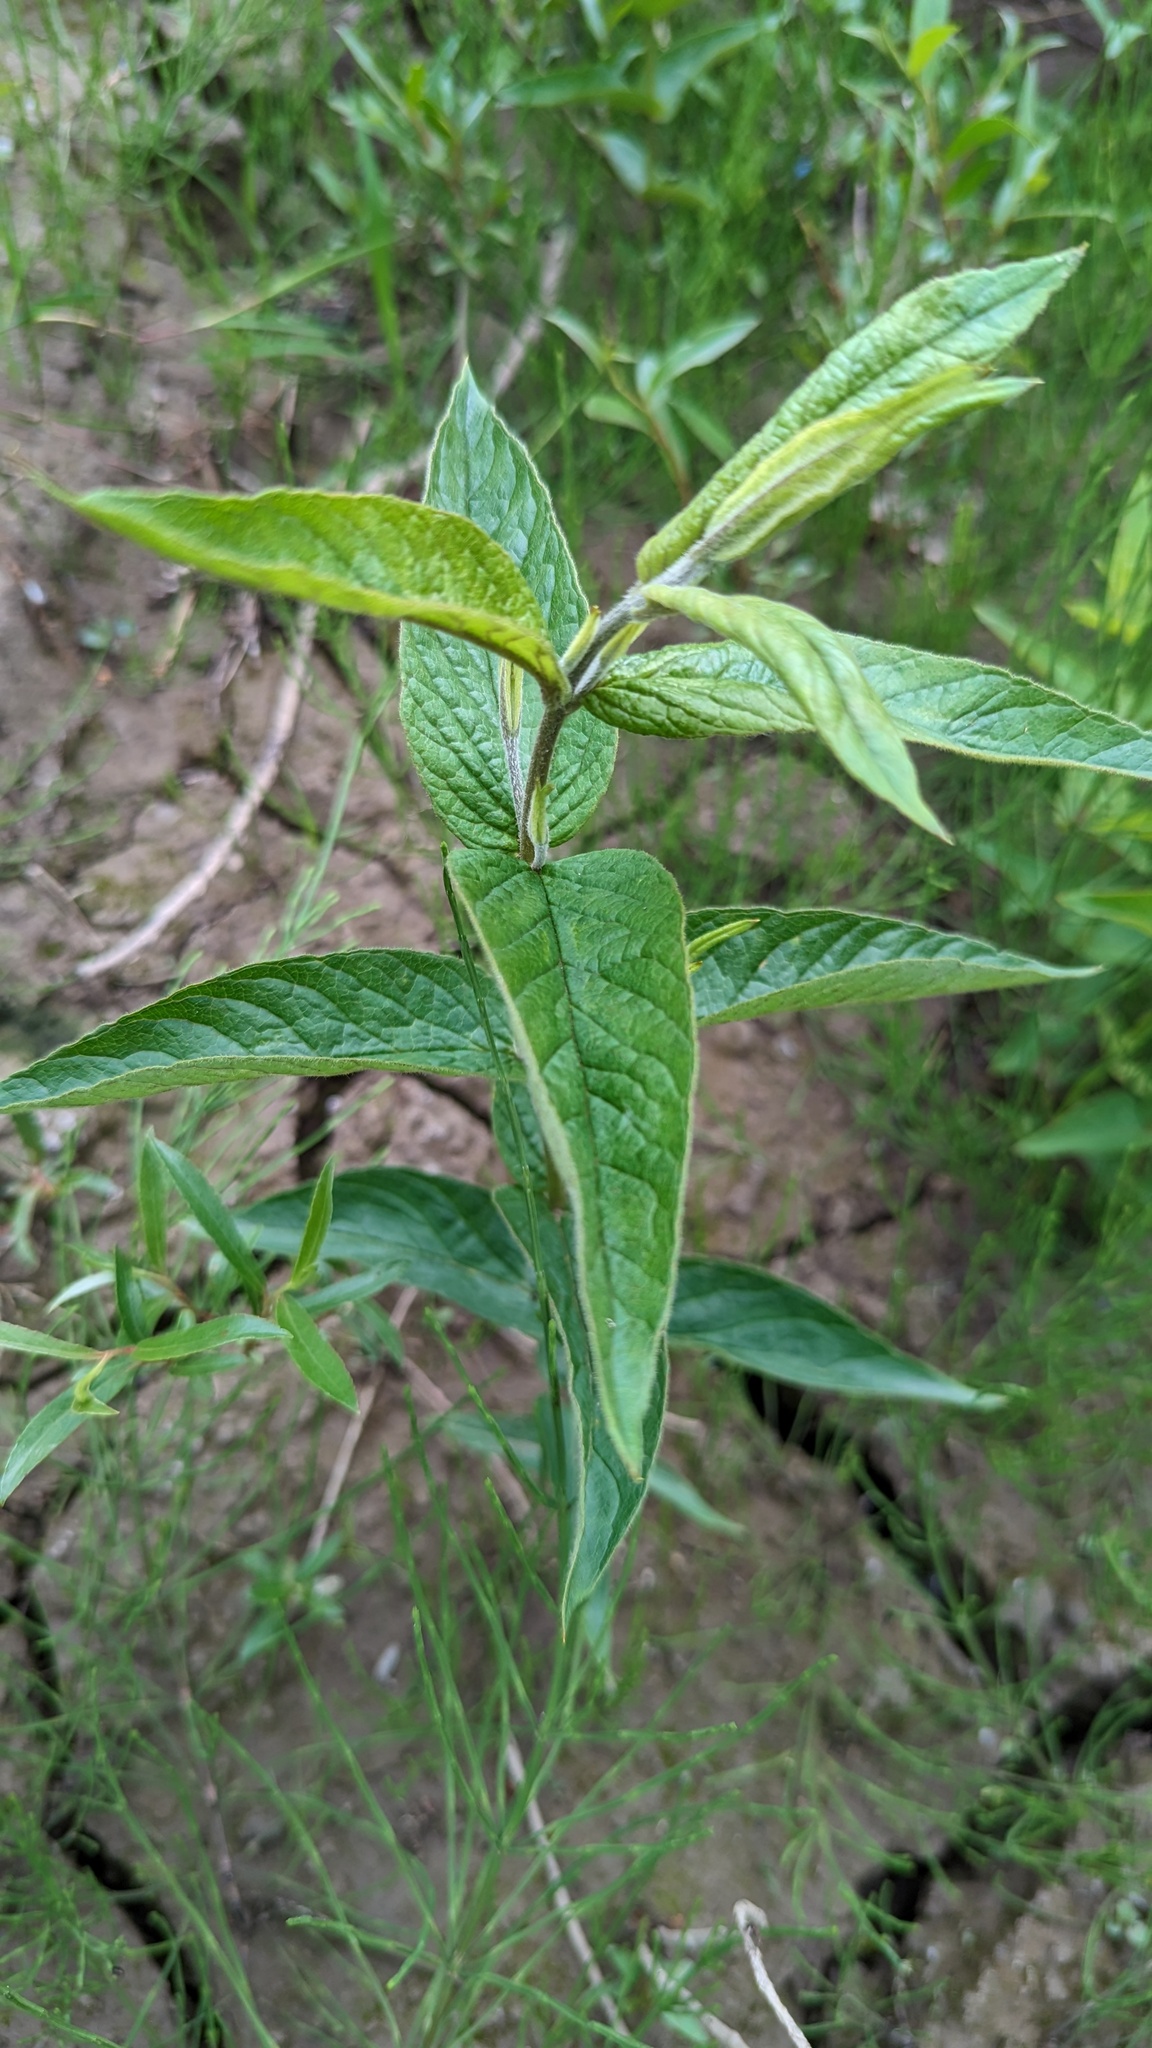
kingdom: Plantae
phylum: Tracheophyta
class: Magnoliopsida
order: Ericales
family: Primulaceae
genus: Lysimachia
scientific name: Lysimachia vulgaris
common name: Yellow loosestrife
